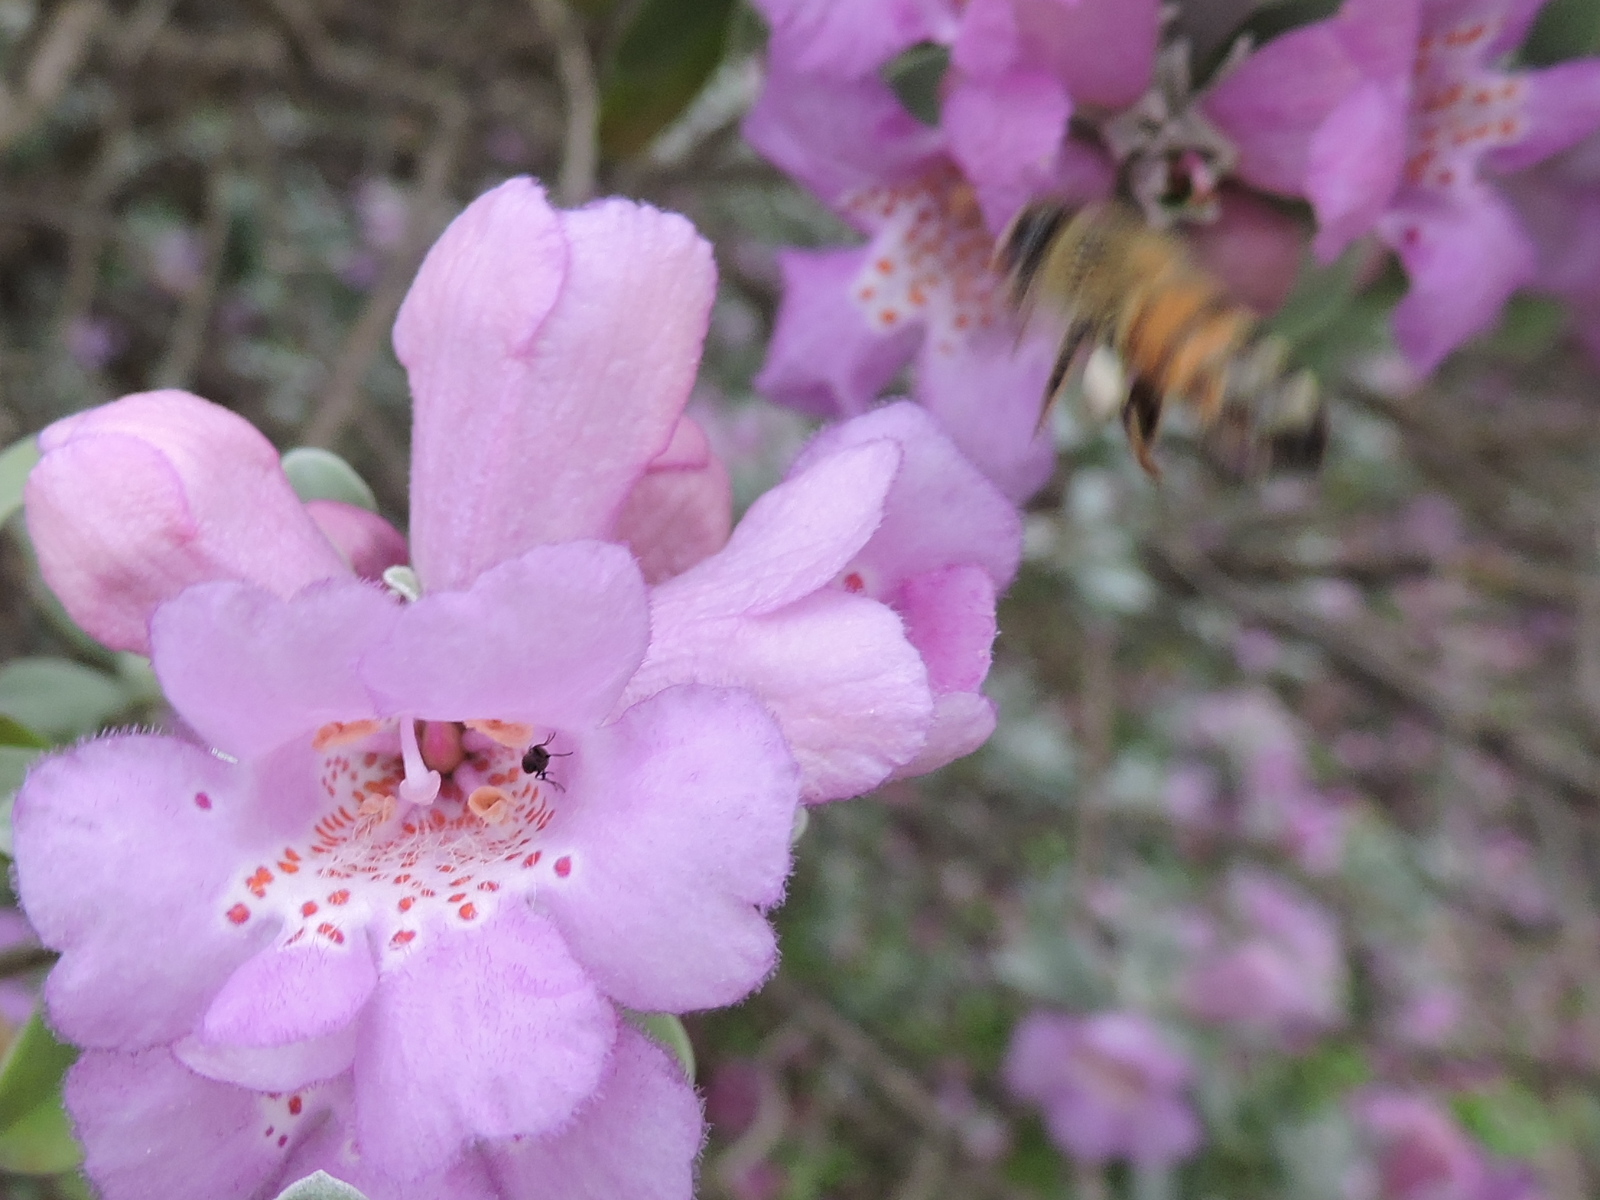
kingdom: Animalia
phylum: Arthropoda
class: Insecta
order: Hymenoptera
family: Apidae
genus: Apis
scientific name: Apis mellifera
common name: Honey bee
